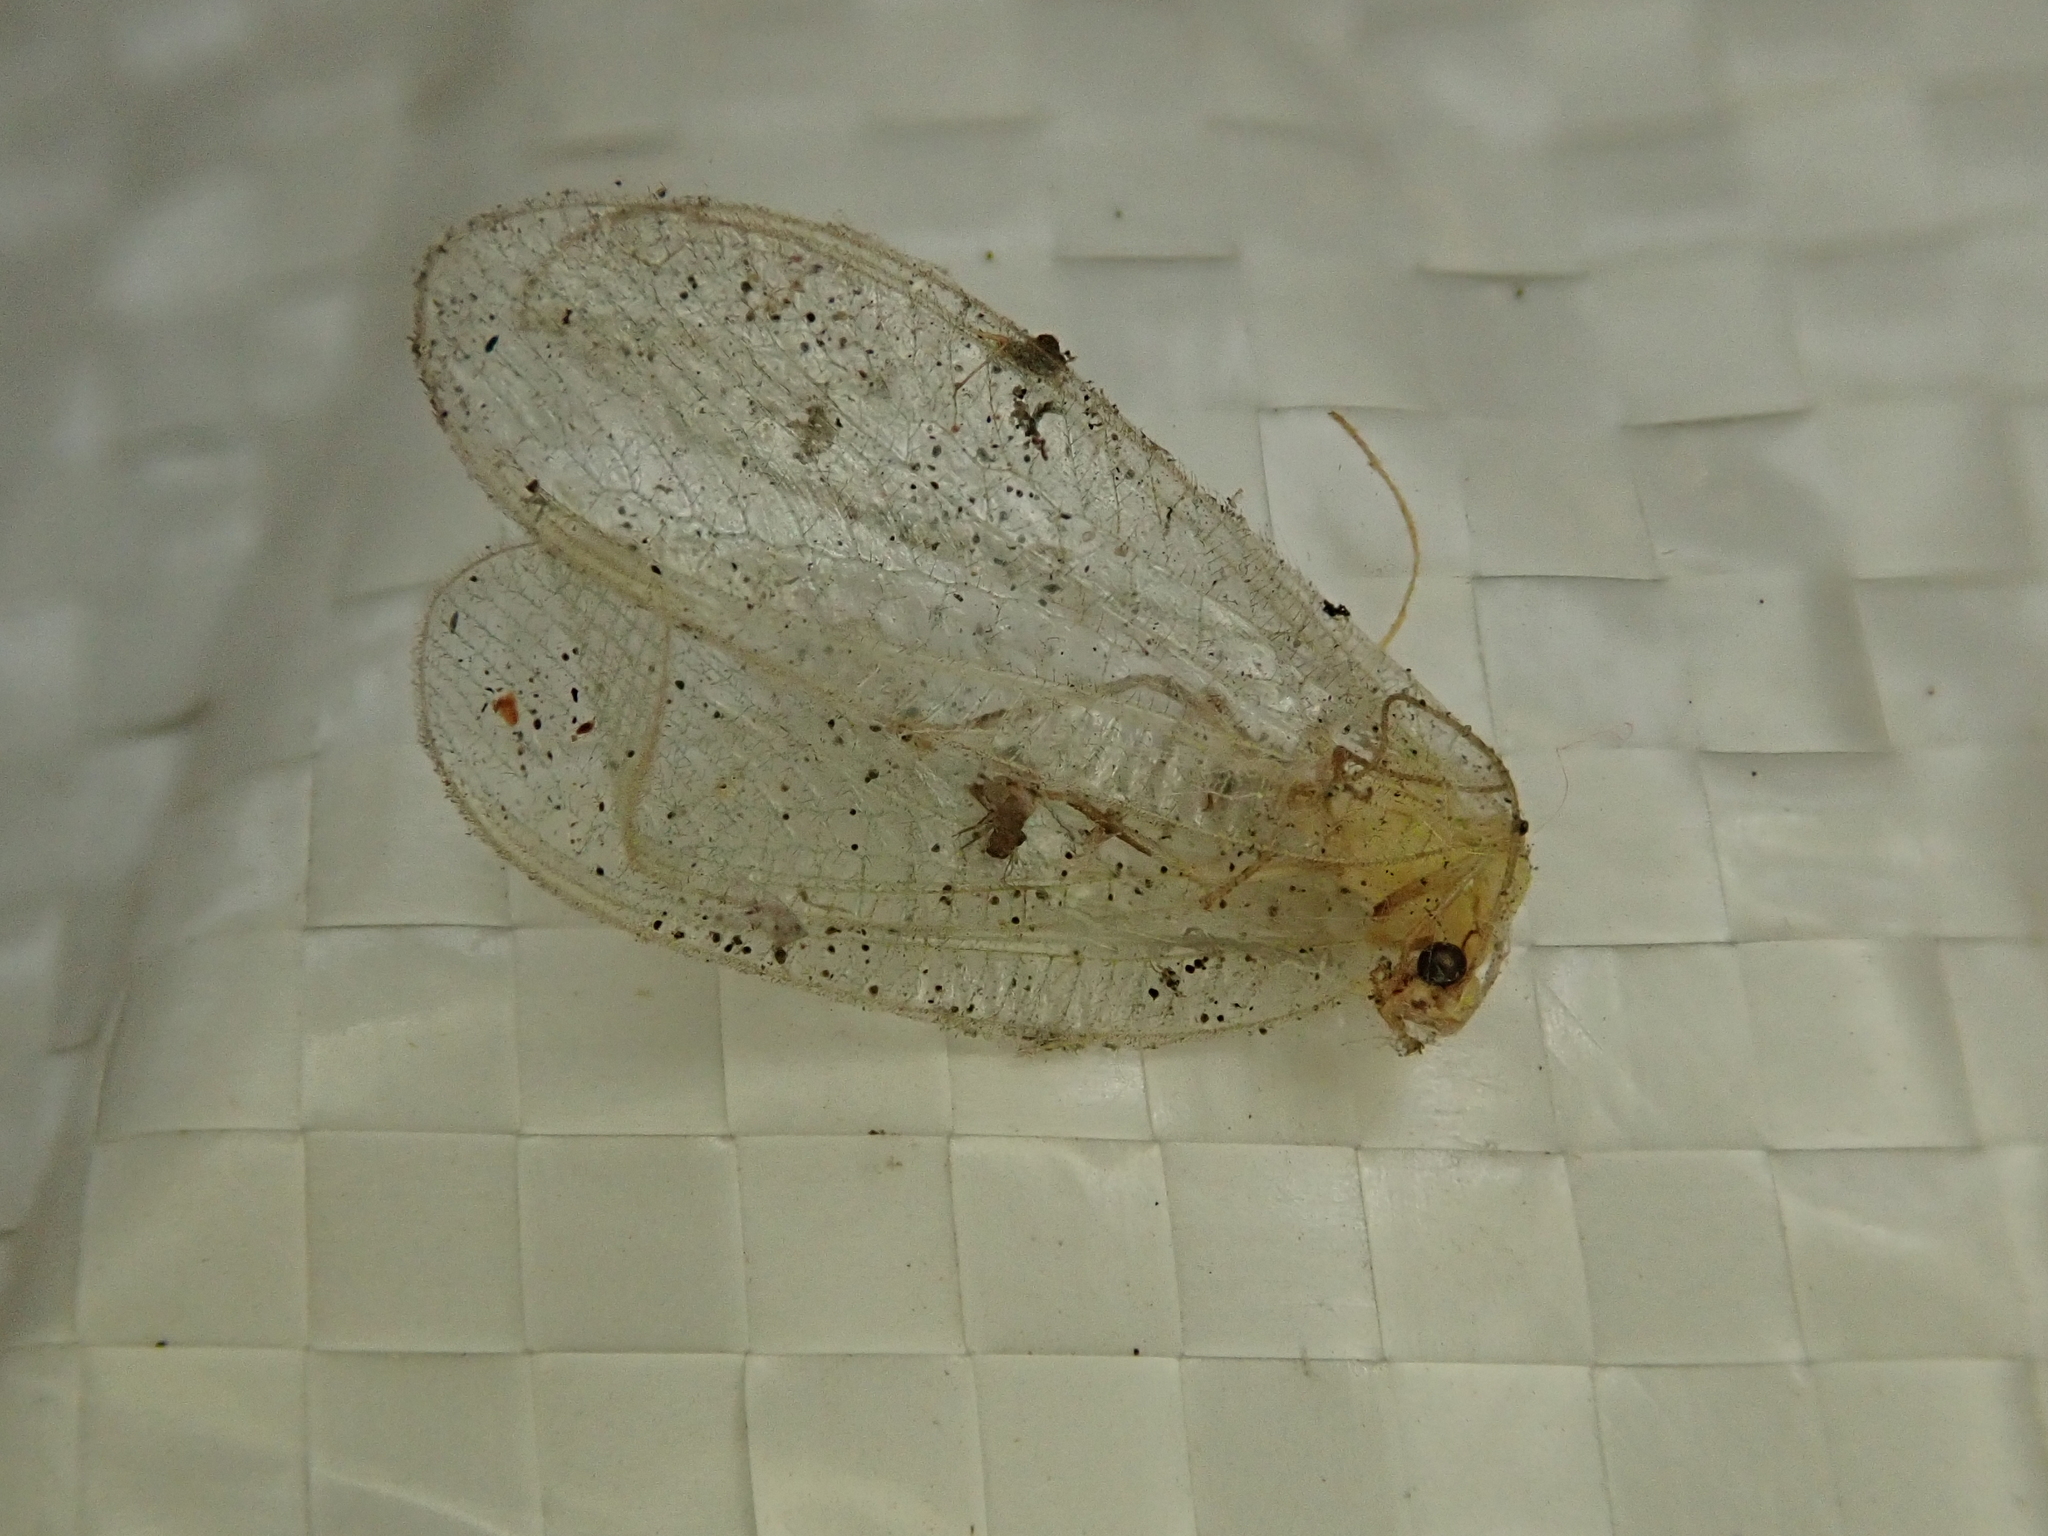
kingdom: Animalia
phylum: Arthropoda
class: Insecta
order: Neuroptera
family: Chrysopidae
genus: Chrysoperla
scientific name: Chrysoperla
